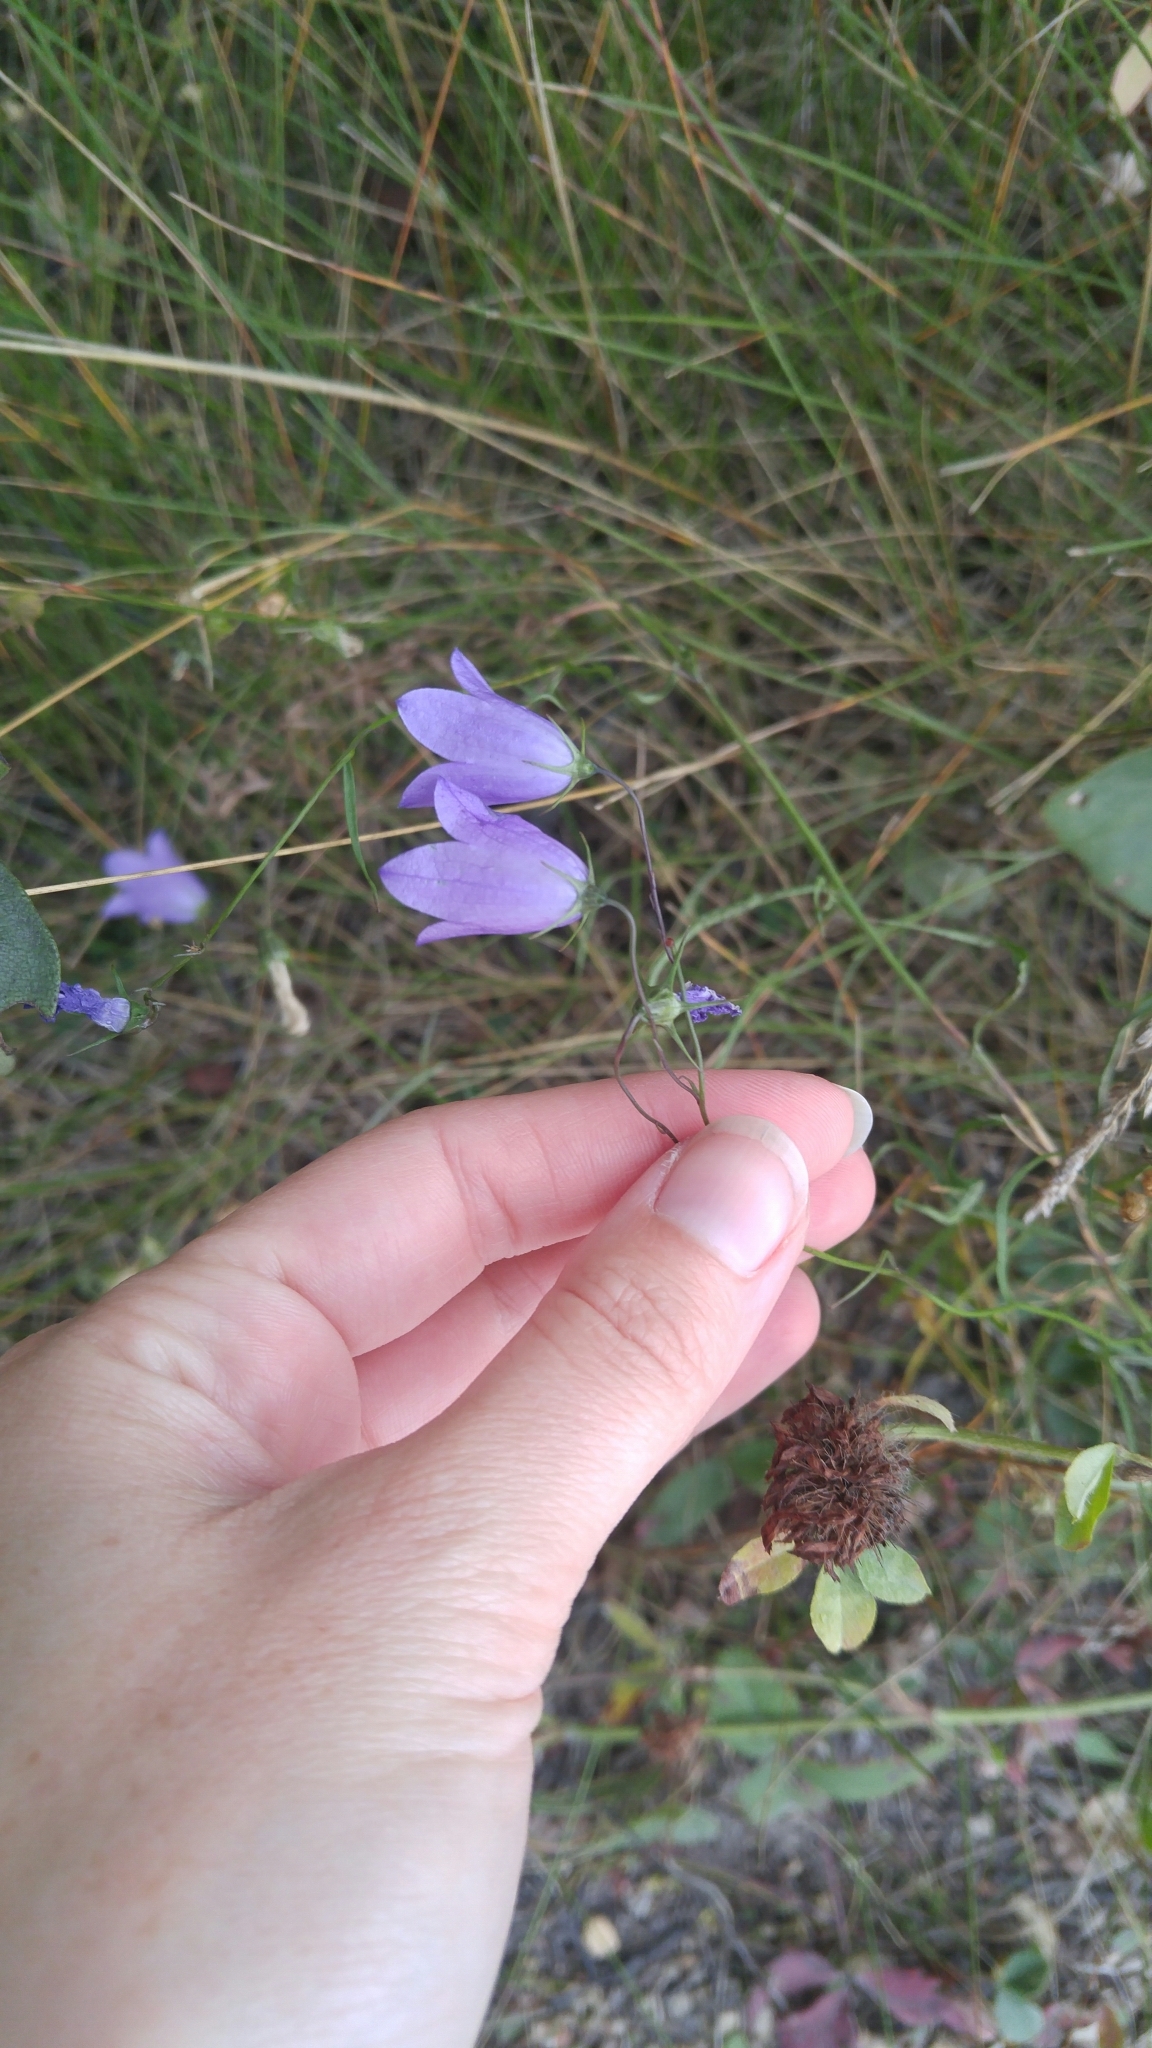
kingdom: Plantae
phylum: Tracheophyta
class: Magnoliopsida
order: Asterales
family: Campanulaceae
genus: Campanula
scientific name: Campanula giesekiana
